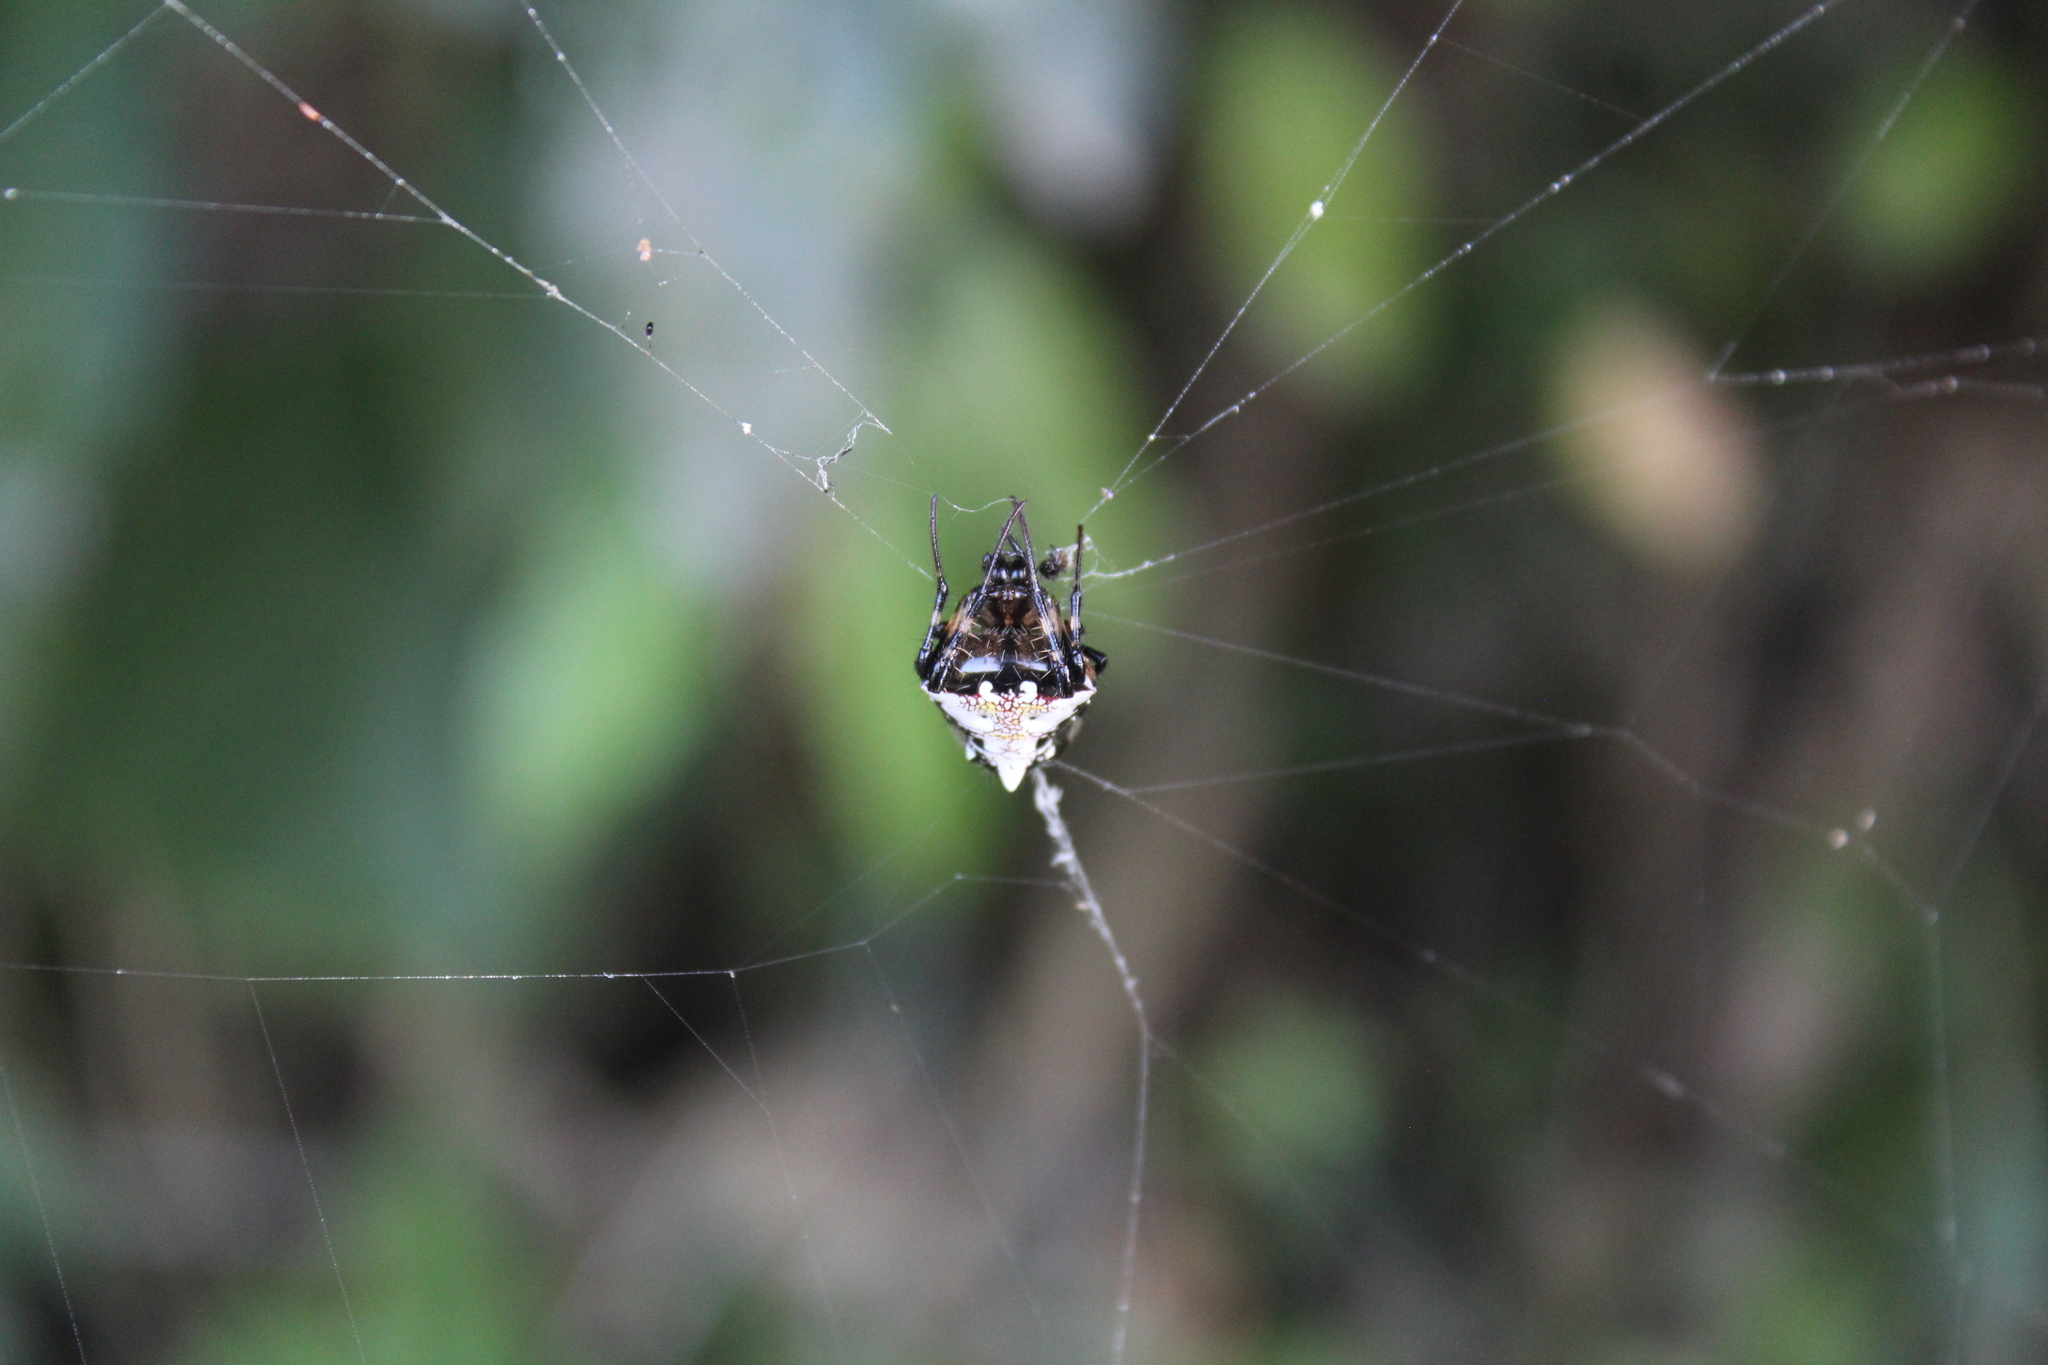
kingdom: Animalia
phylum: Arthropoda
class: Arachnida
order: Araneae
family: Araneidae
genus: Verrucosa
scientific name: Verrucosa arenata
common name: Orb weavers
